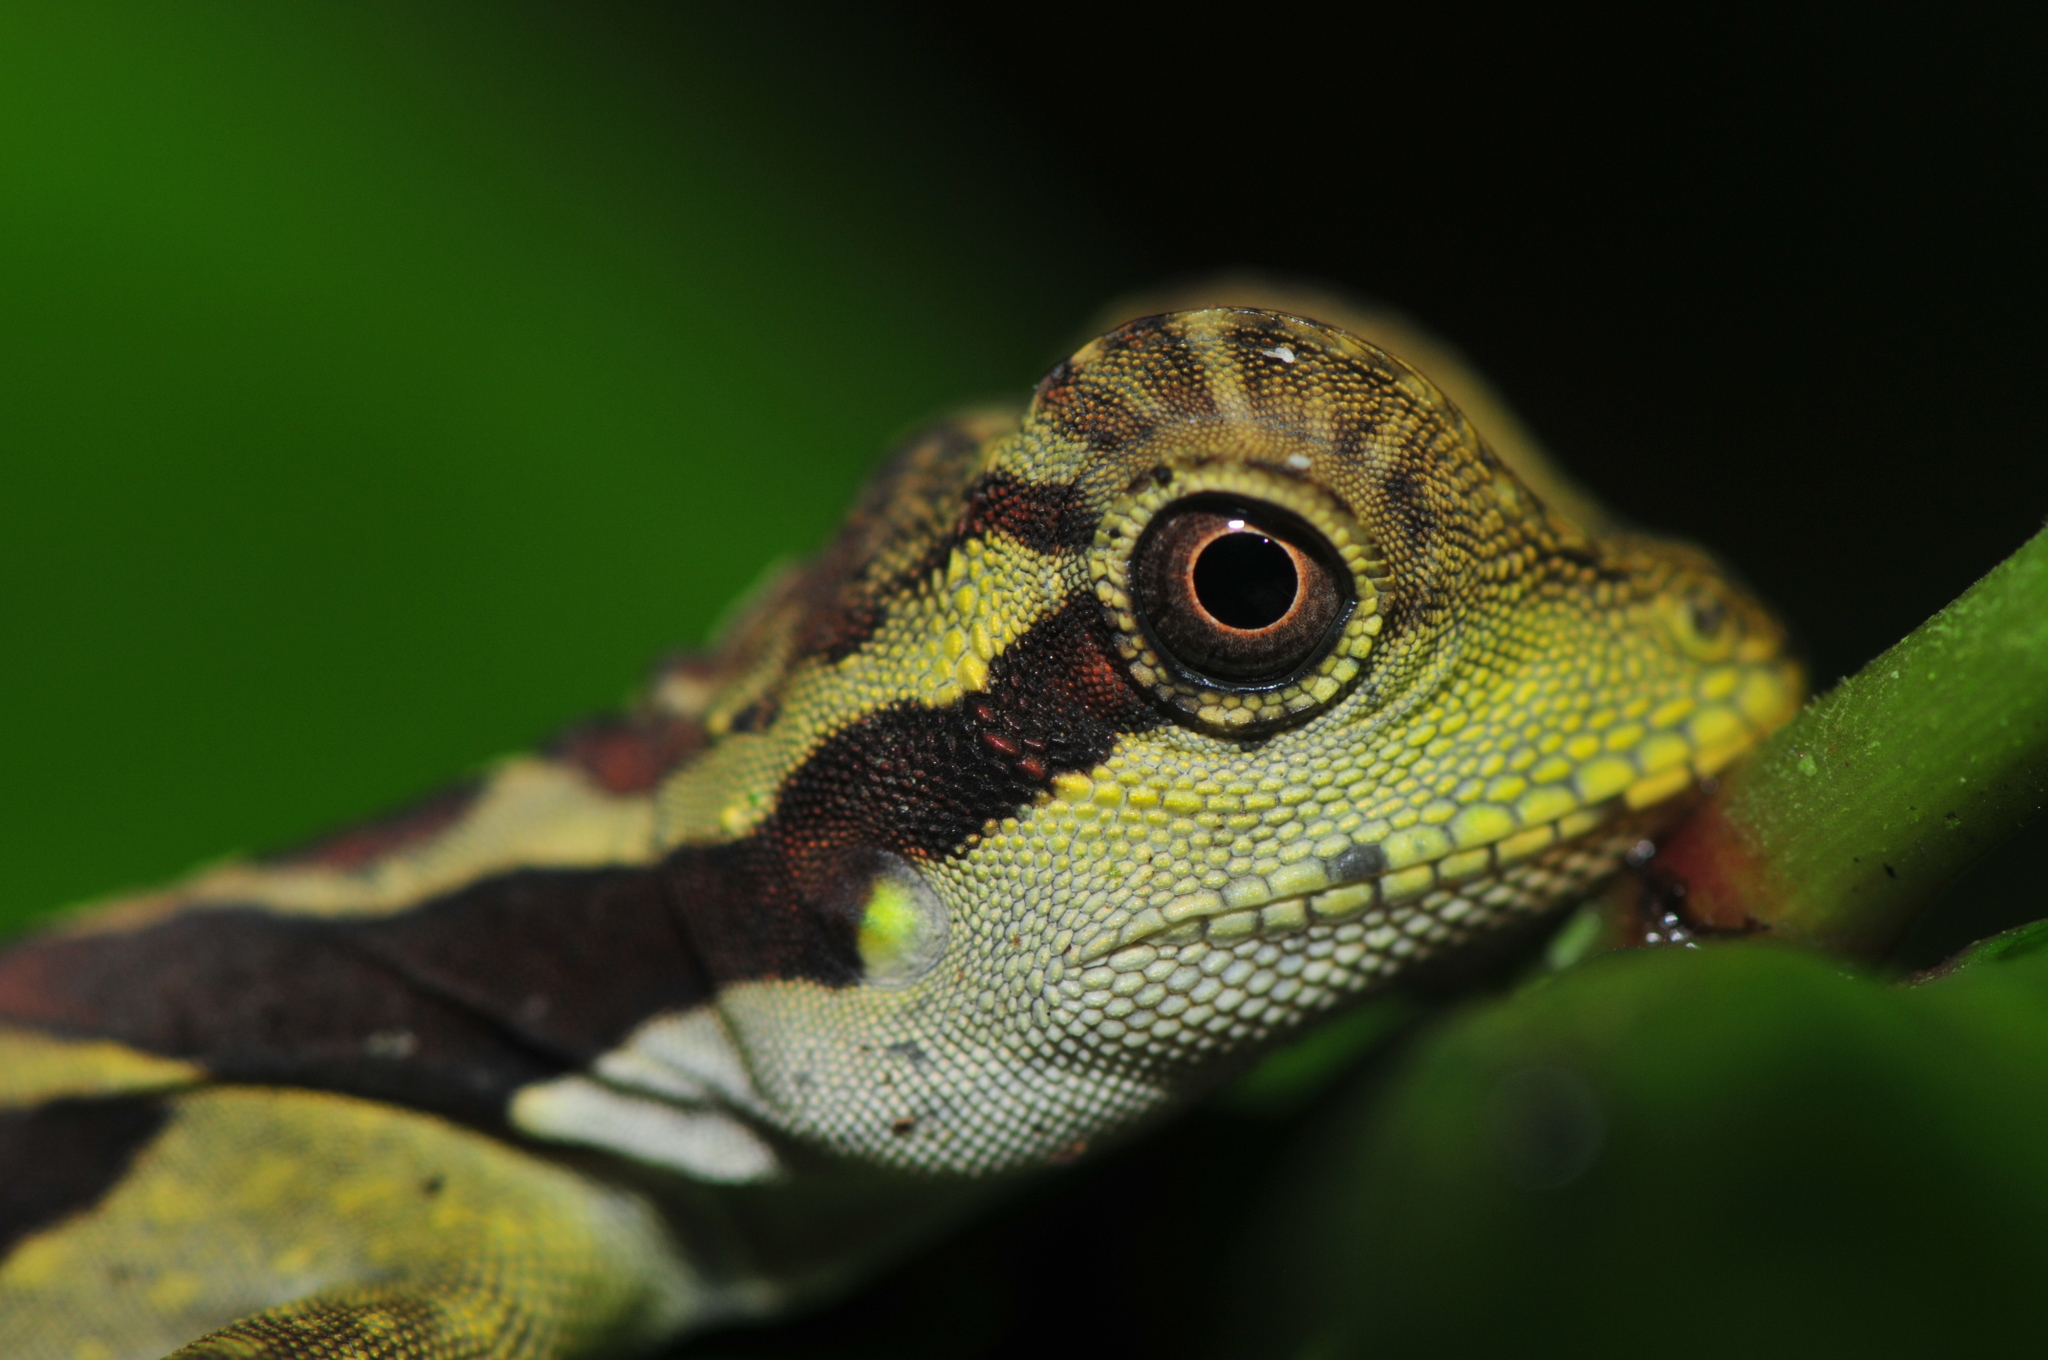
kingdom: Animalia
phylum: Chordata
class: Squamata
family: Agamidae
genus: Gonocephalus
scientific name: Gonocephalus grandis
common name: Giant forest dragon
